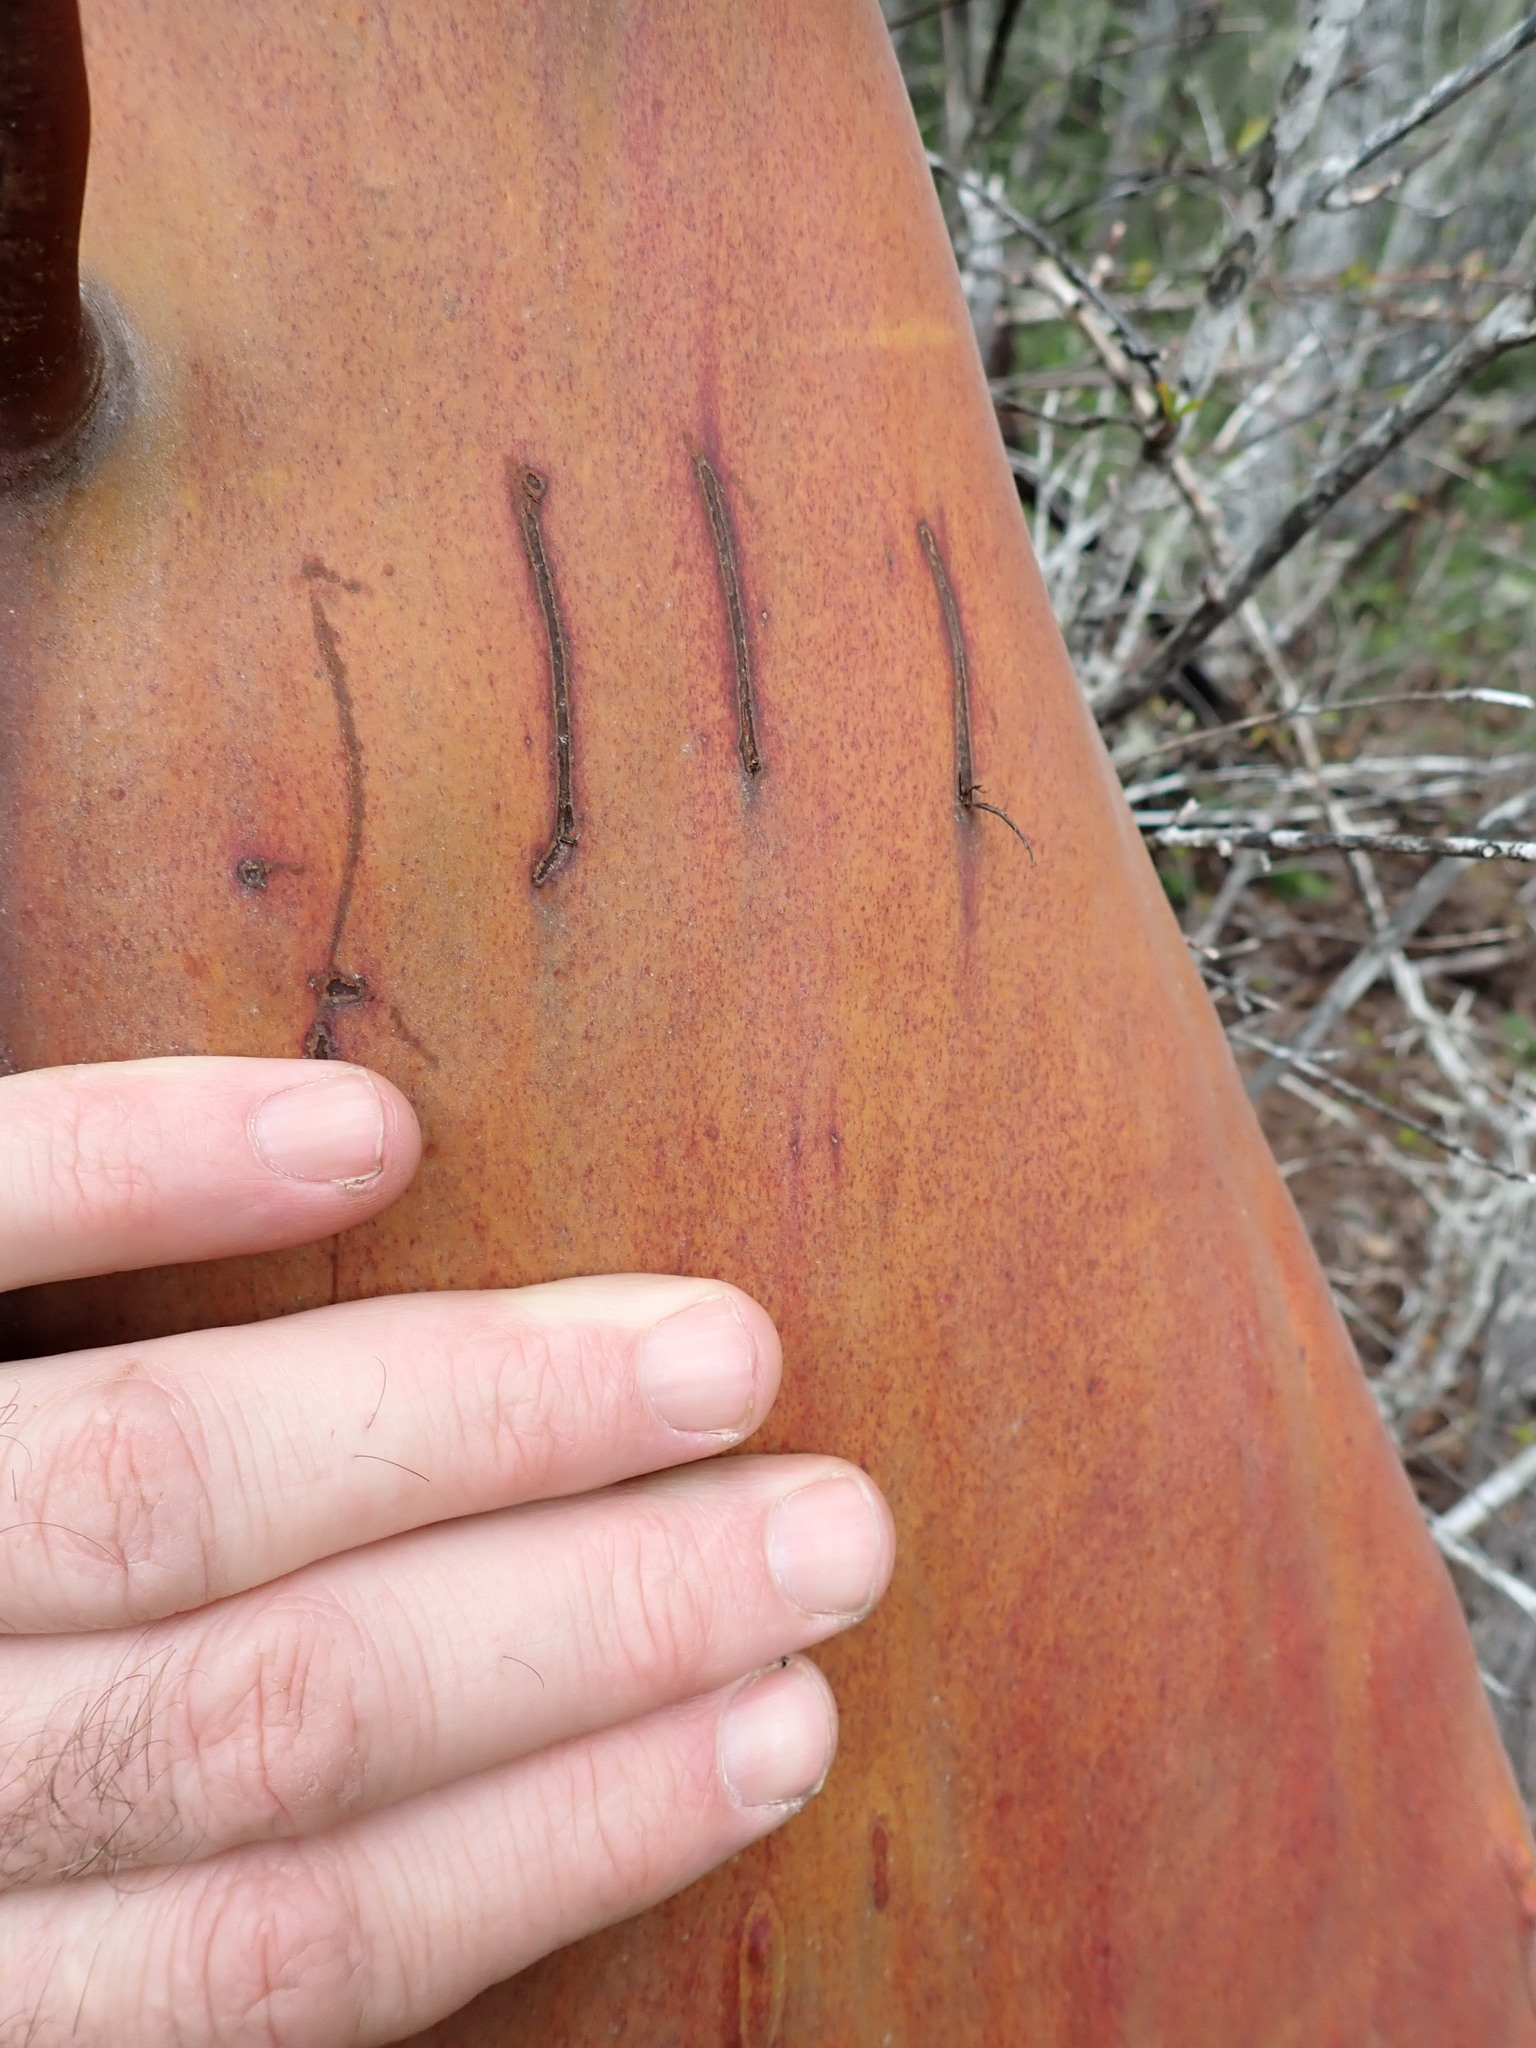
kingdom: Plantae
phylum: Tracheophyta
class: Magnoliopsida
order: Ericales
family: Ericaceae
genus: Arbutus
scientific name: Arbutus menziesii
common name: Pacific madrone
